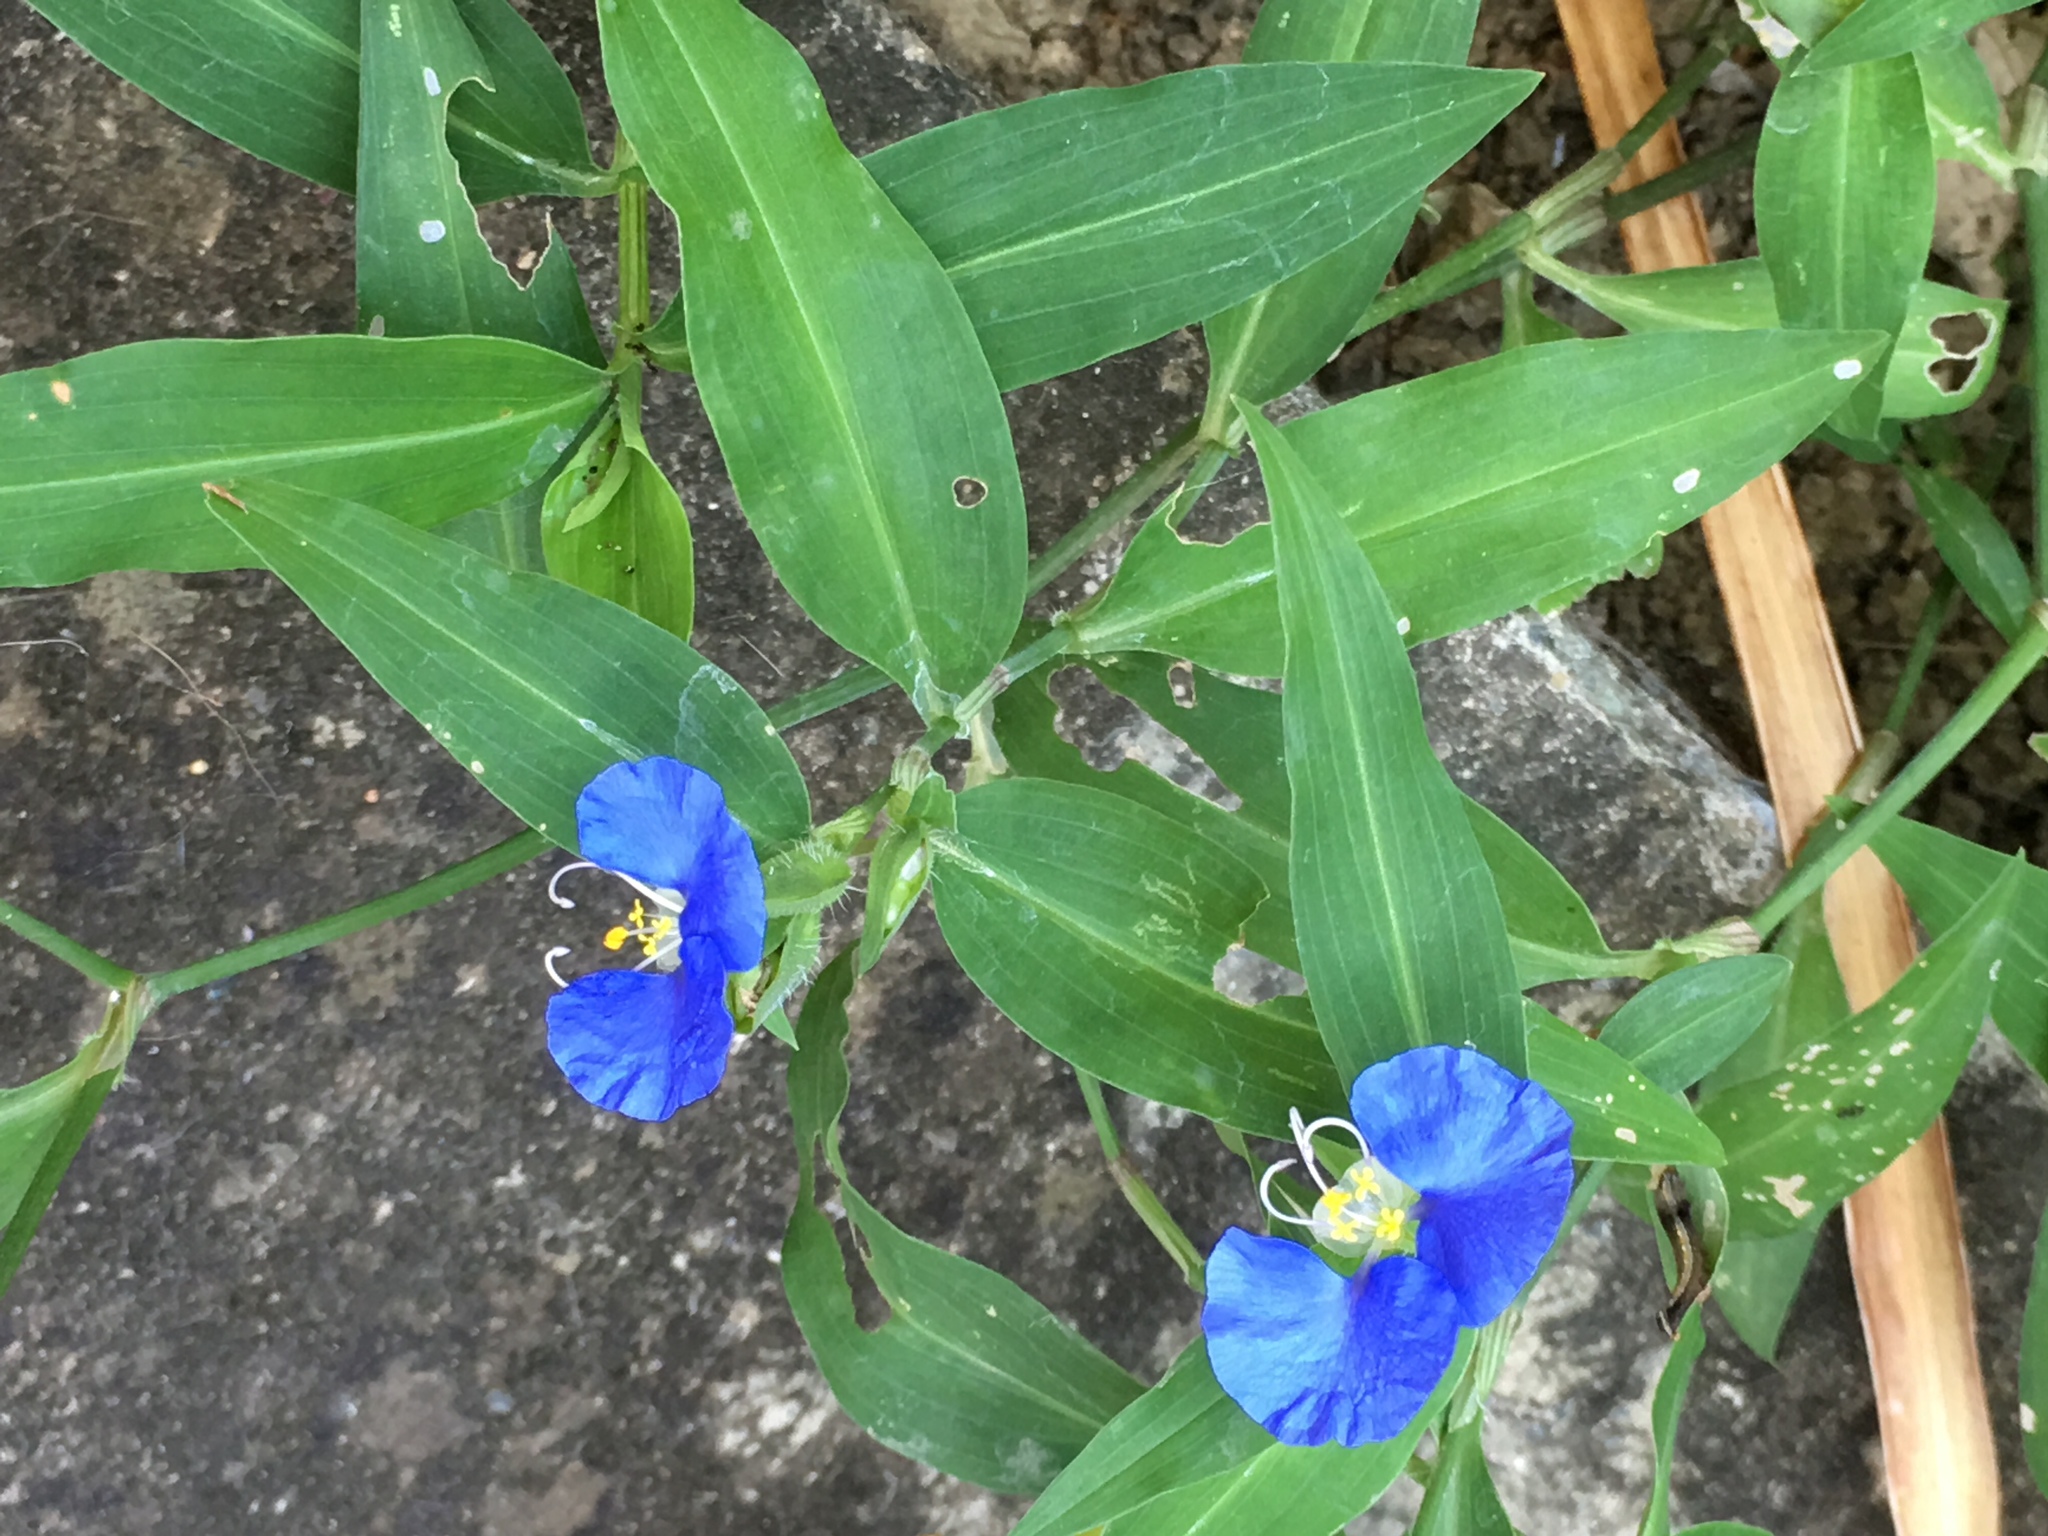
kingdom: Plantae
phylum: Tracheophyta
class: Liliopsida
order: Commelinales
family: Commelinaceae
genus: Commelina
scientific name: Commelina erecta
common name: Blousel blommetjie
